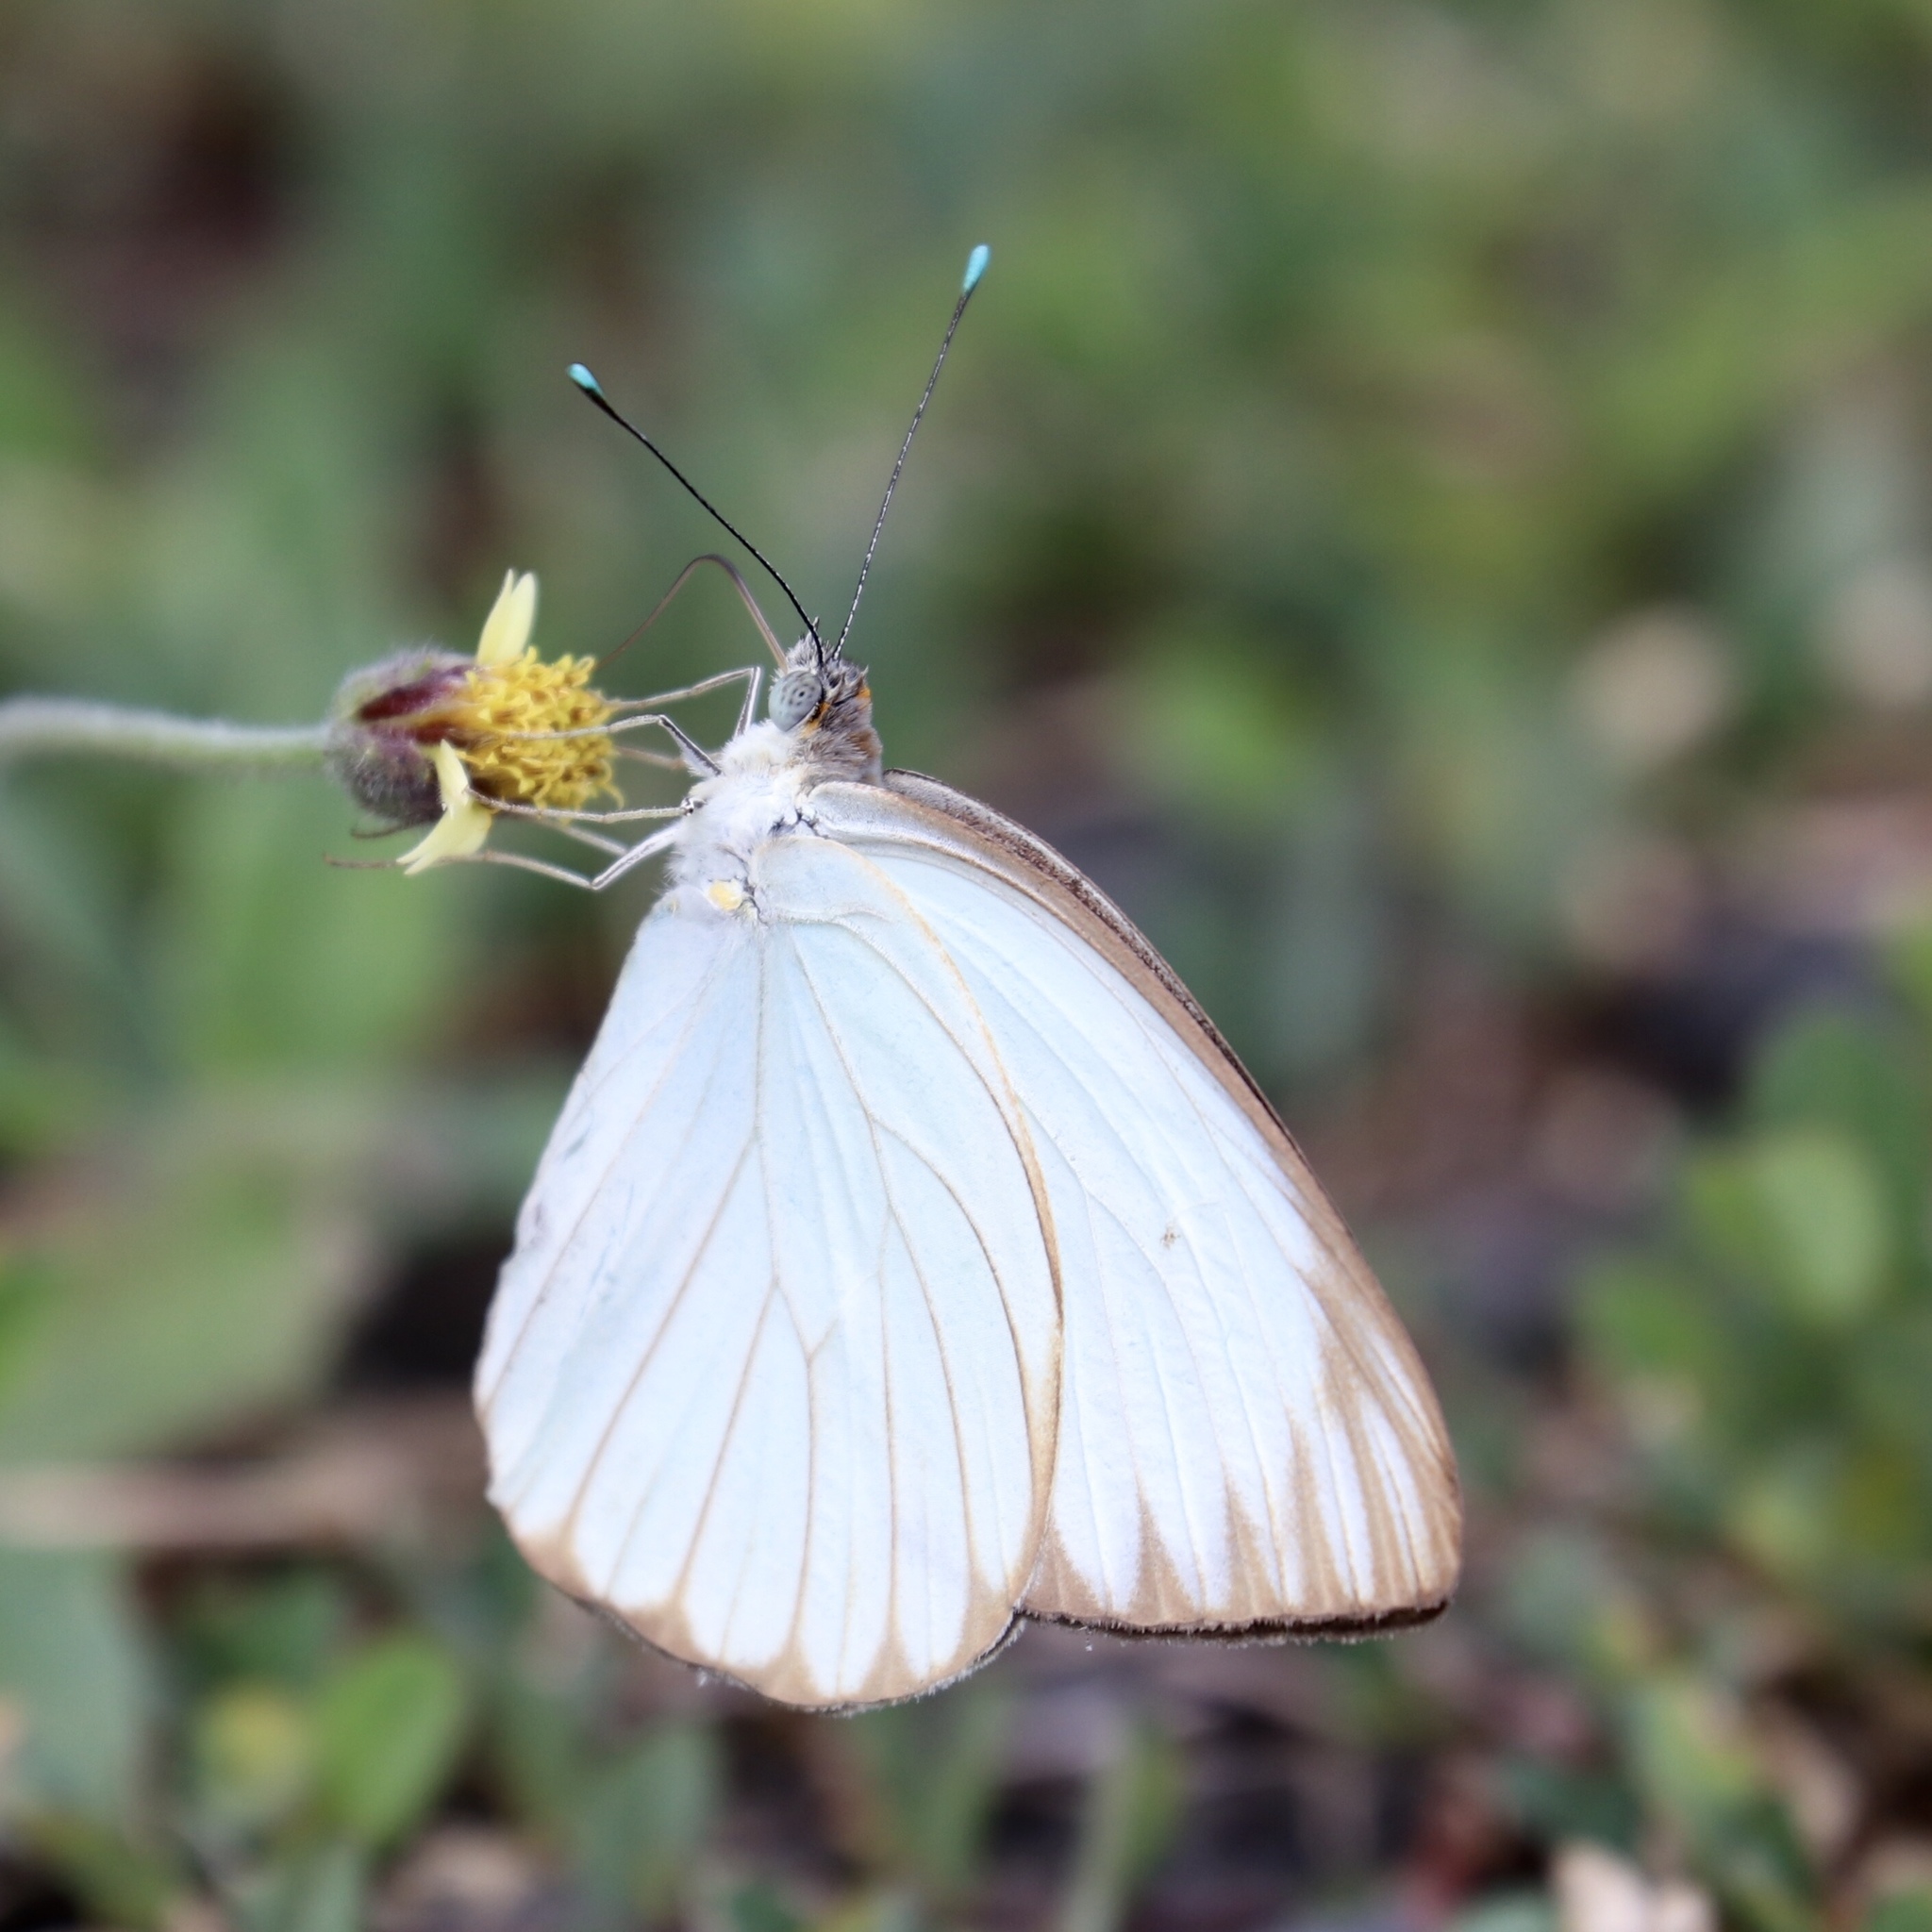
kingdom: Animalia
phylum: Arthropoda
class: Insecta
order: Lepidoptera
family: Pieridae
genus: Ascia
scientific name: Ascia monuste
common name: Great southern white
